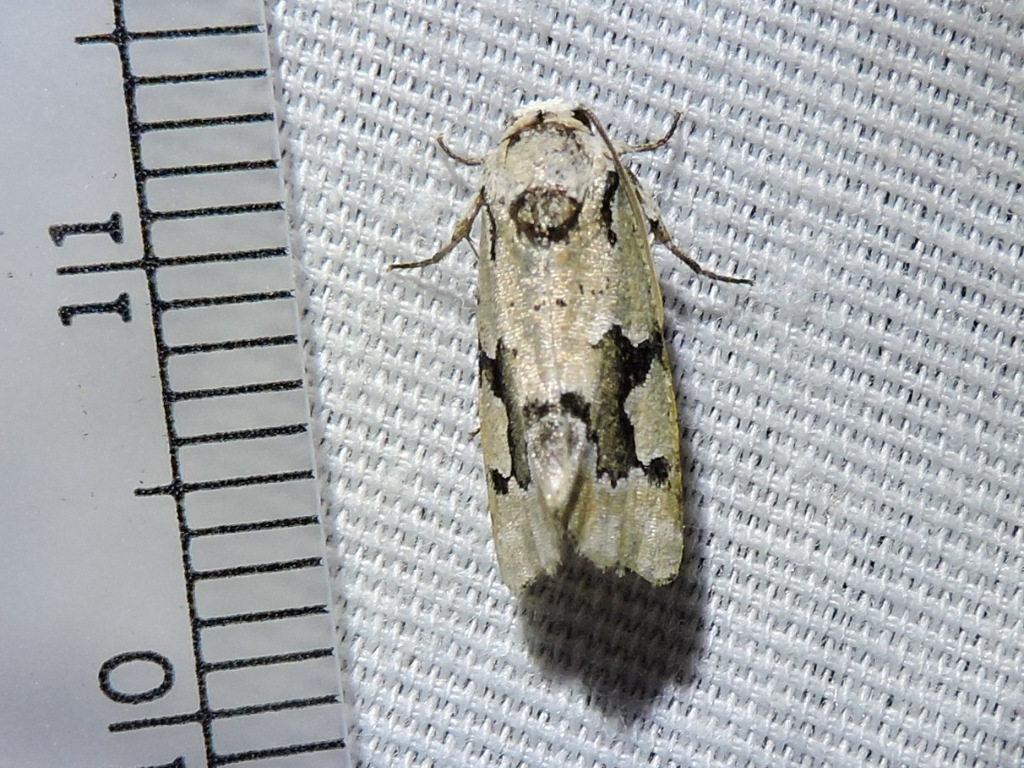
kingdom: Animalia
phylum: Arthropoda
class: Insecta
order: Lepidoptera
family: Noctuidae
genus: Emarginea
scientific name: Emarginea percara
